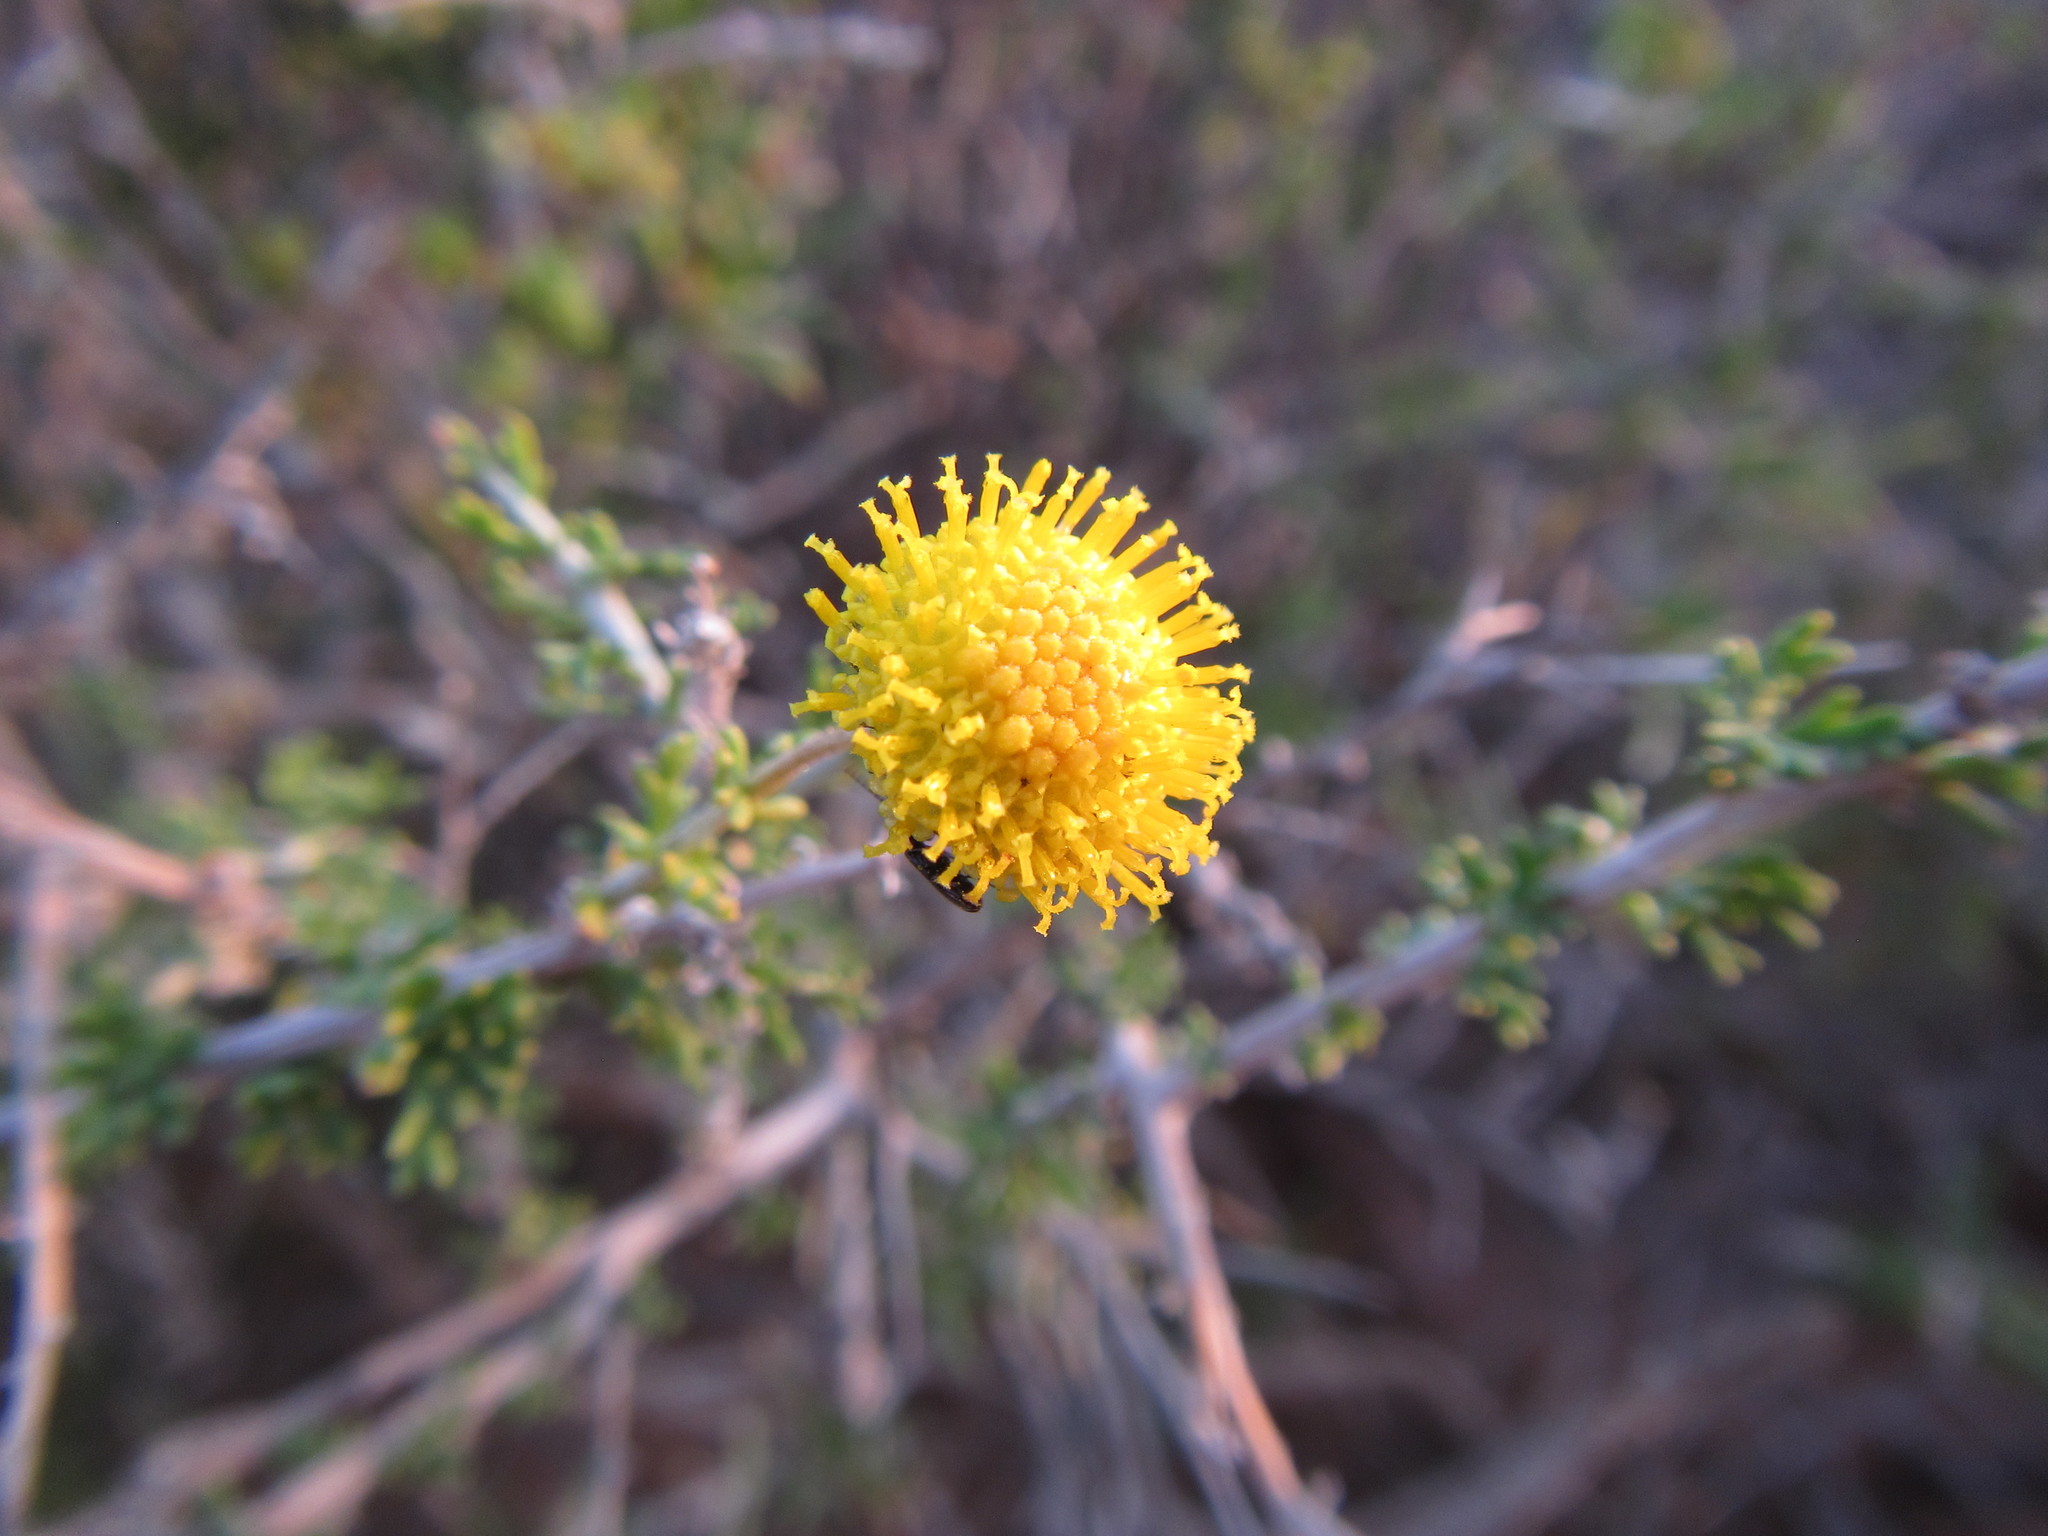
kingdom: Plantae
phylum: Tracheophyta
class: Magnoliopsida
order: Asterales
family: Asteraceae
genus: Pentzia
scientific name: Pentzia spinescens
